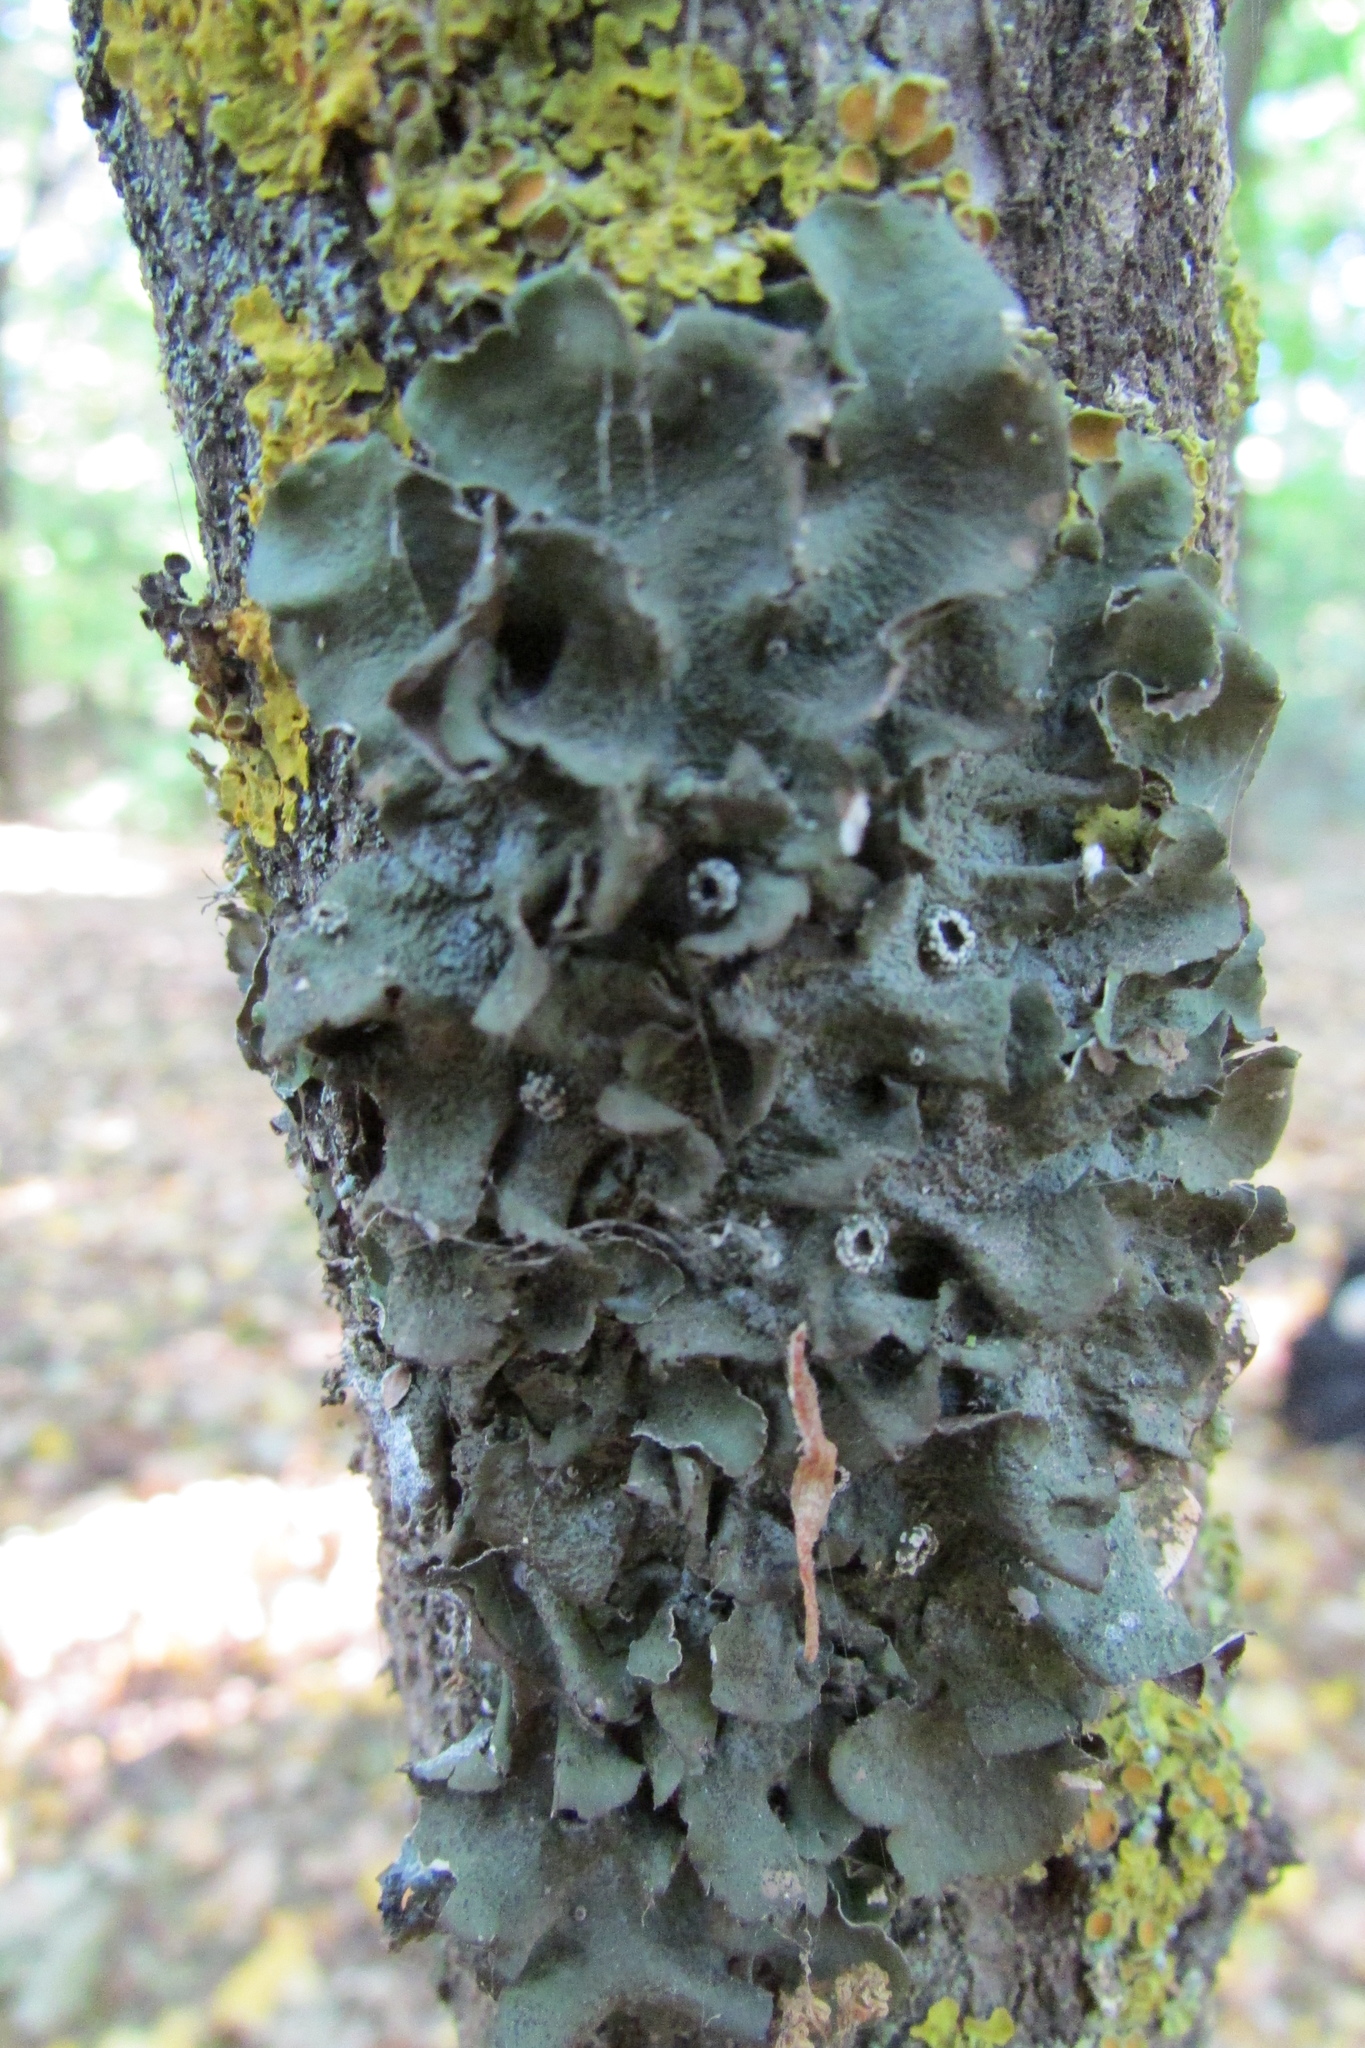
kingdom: Fungi
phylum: Ascomycota
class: Lecanoromycetes
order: Lecanorales
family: Parmeliaceae
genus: Pleurosticta
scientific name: Pleurosticta acetabulum
